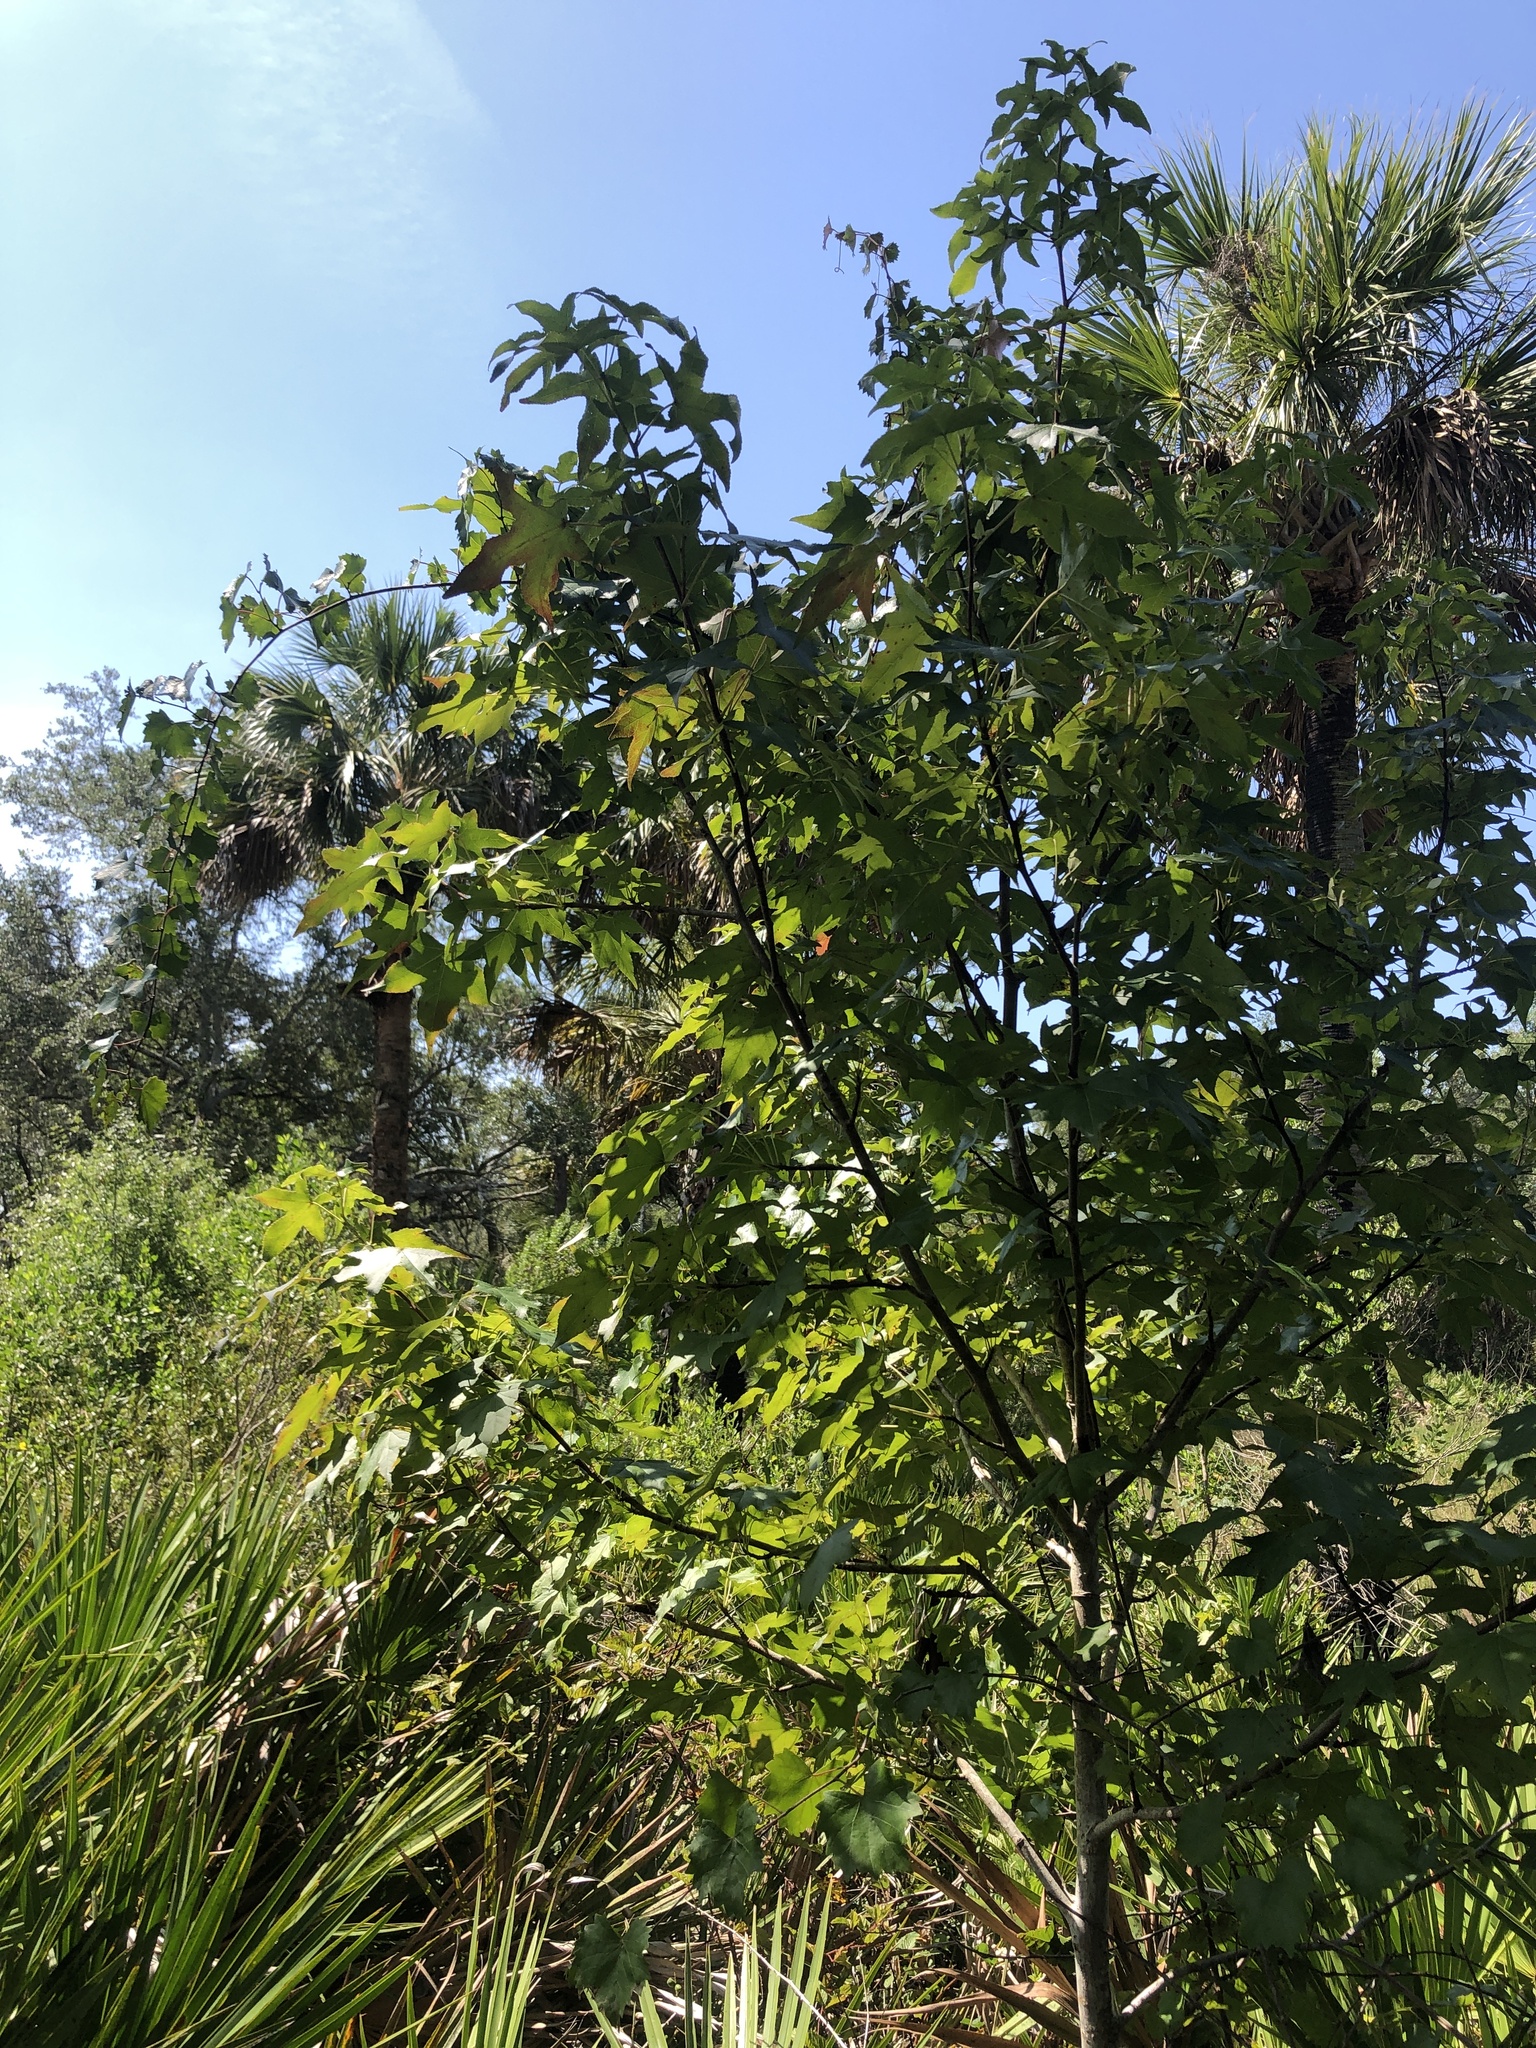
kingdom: Plantae
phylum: Tracheophyta
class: Magnoliopsida
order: Saxifragales
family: Altingiaceae
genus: Liquidambar
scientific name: Liquidambar styraciflua
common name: Sweet gum
